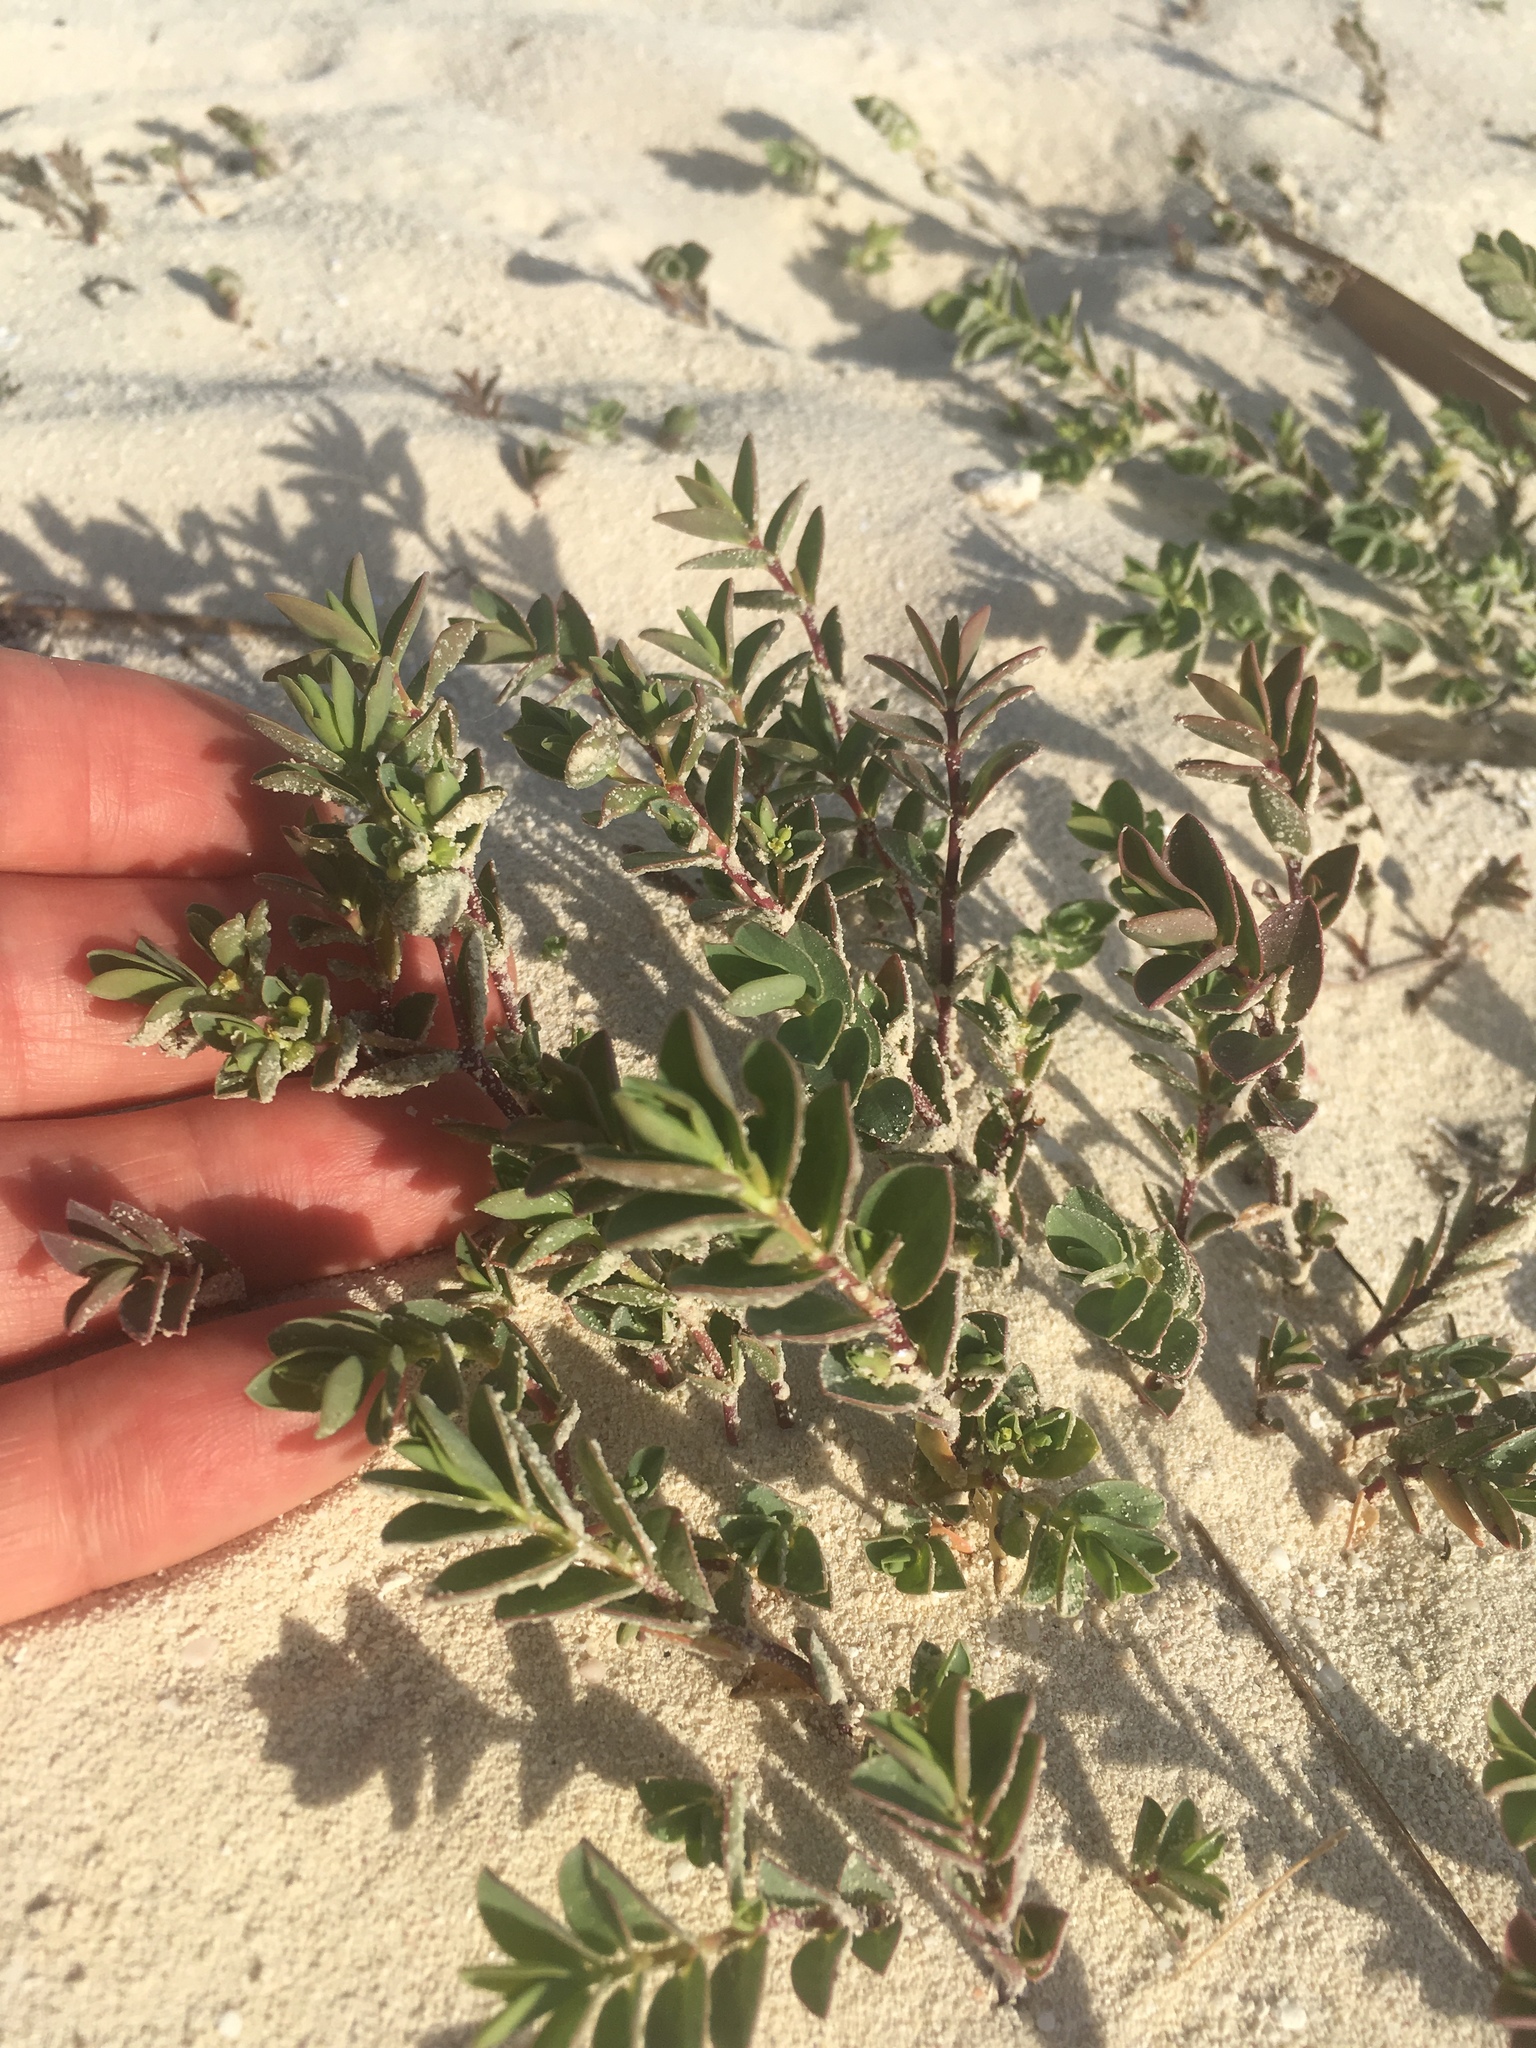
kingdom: Plantae
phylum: Tracheophyta
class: Magnoliopsida
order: Malpighiales
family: Euphorbiaceae
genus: Euphorbia
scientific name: Euphorbia mesembryanthemifolia
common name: Coastal beach sandmat
